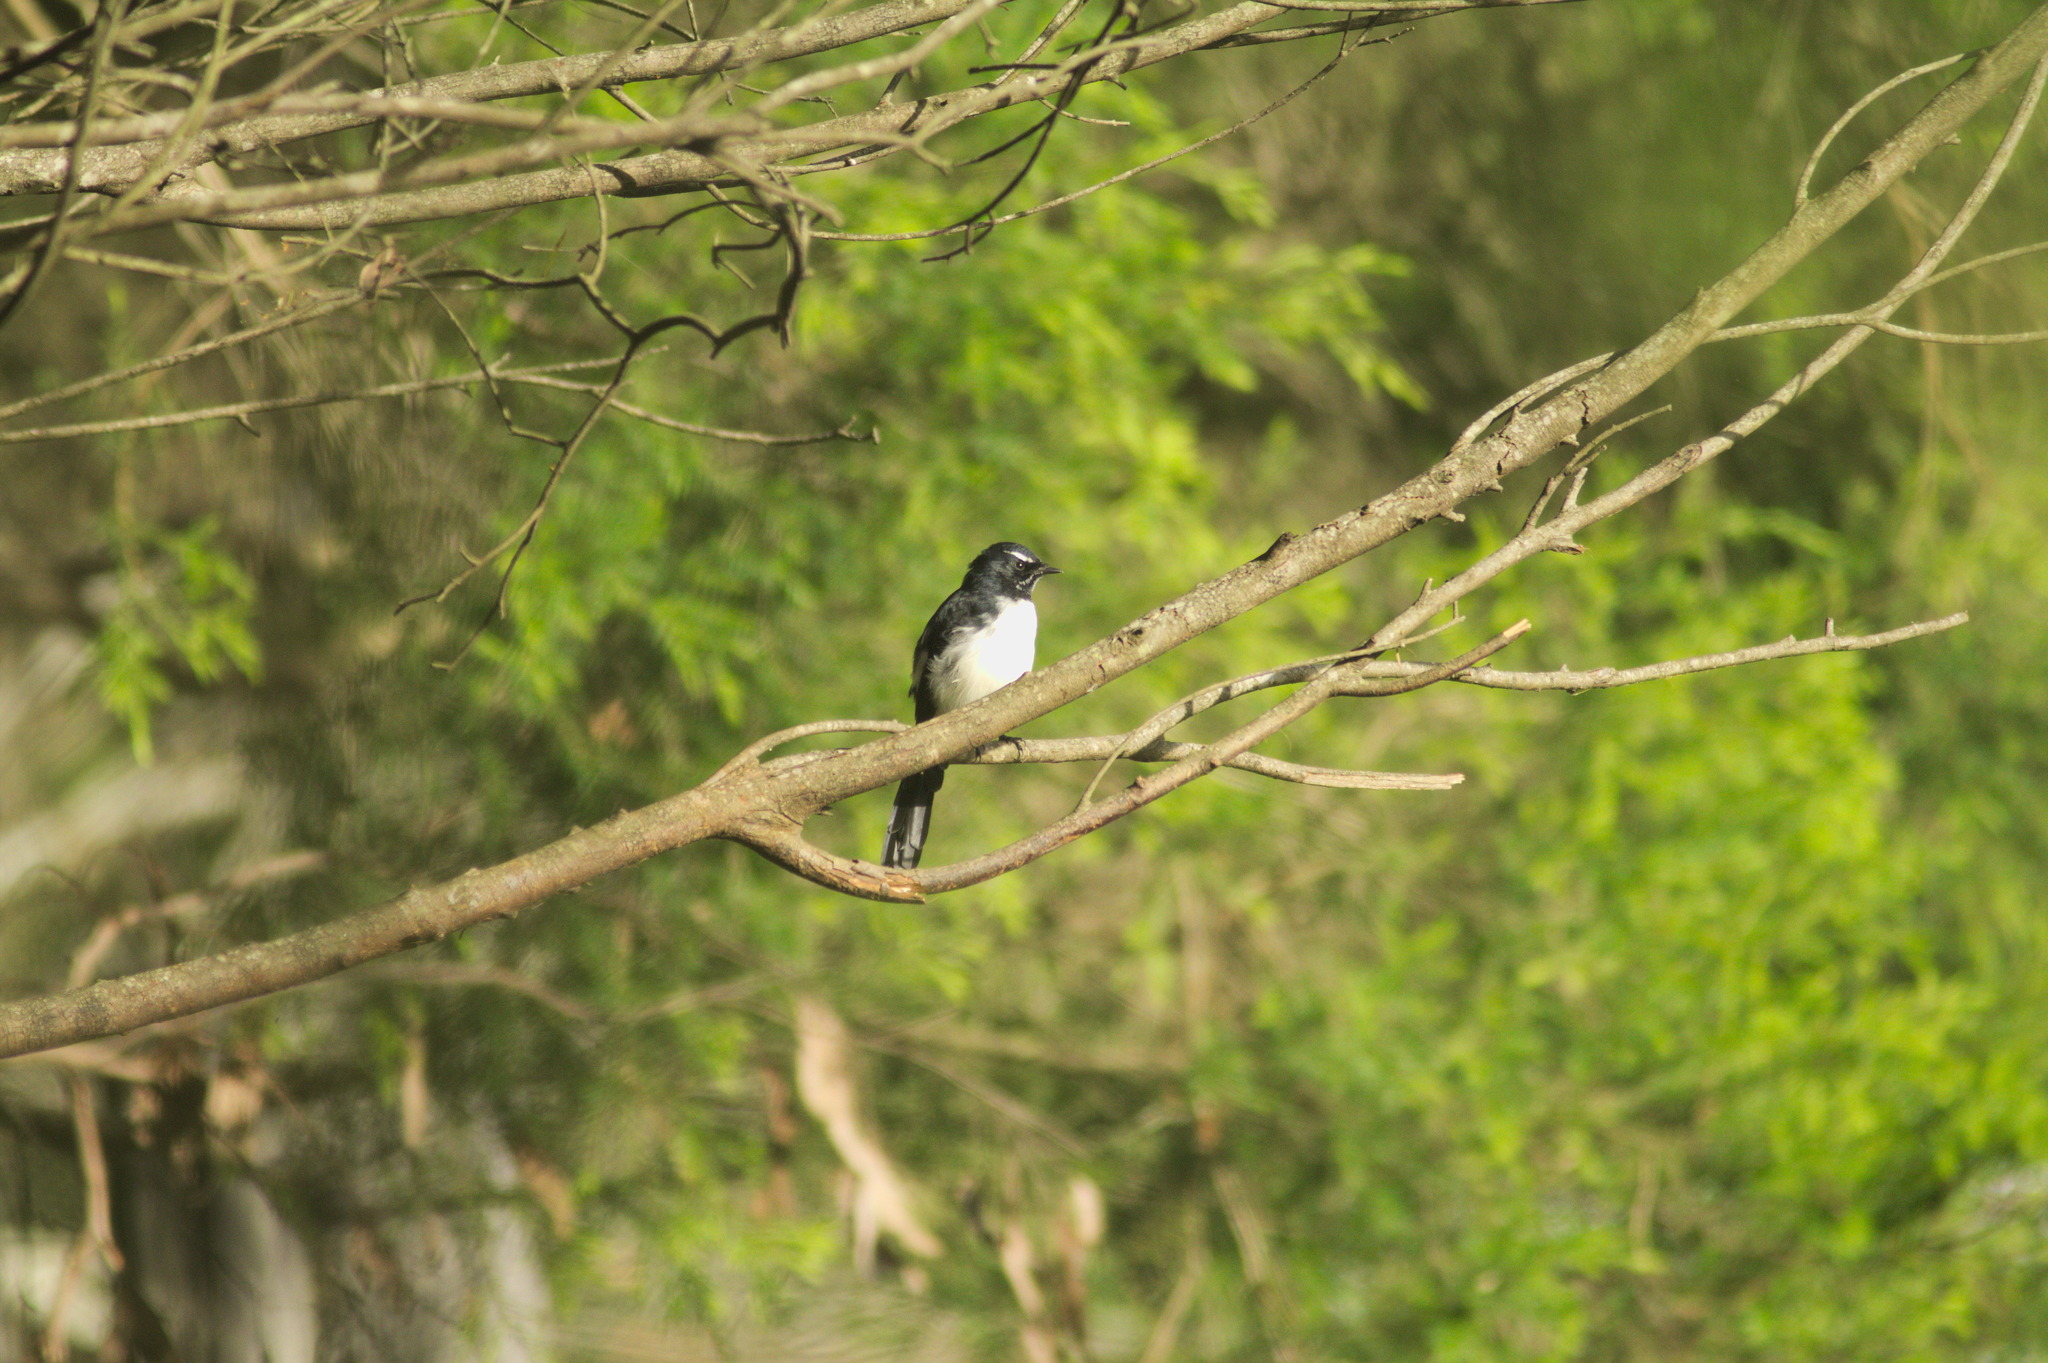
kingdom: Animalia
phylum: Chordata
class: Aves
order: Passeriformes
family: Rhipiduridae
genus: Rhipidura
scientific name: Rhipidura leucophrys
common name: Willie wagtail
